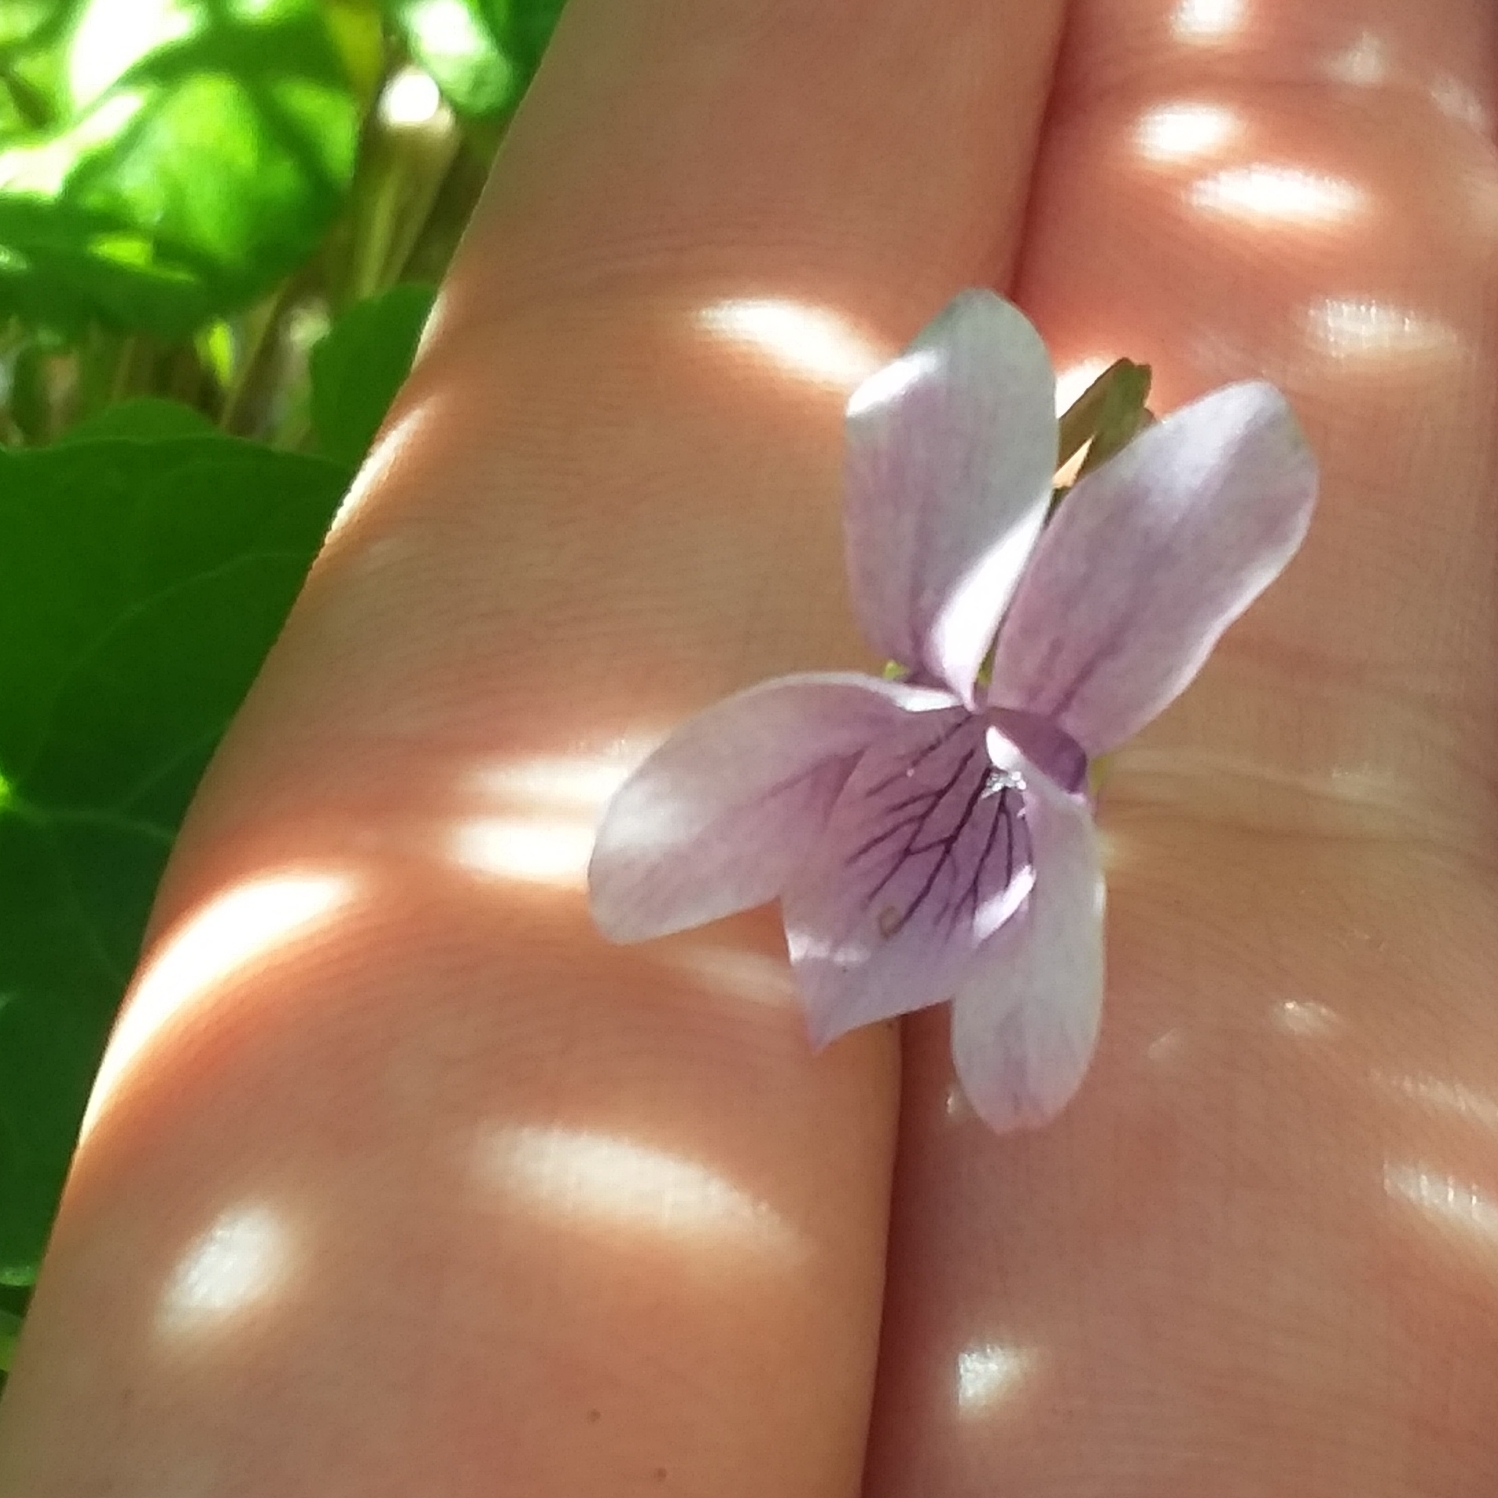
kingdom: Plantae
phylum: Tracheophyta
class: Magnoliopsida
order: Malpighiales
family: Violaceae
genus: Viola
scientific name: Viola palustris
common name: Marsh violet
